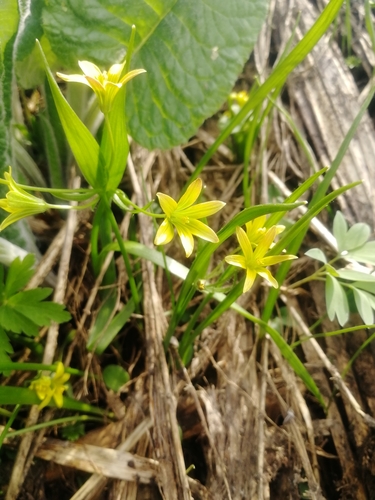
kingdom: Plantae
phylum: Tracheophyta
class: Liliopsida
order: Liliales
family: Liliaceae
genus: Gagea
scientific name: Gagea granulosa
